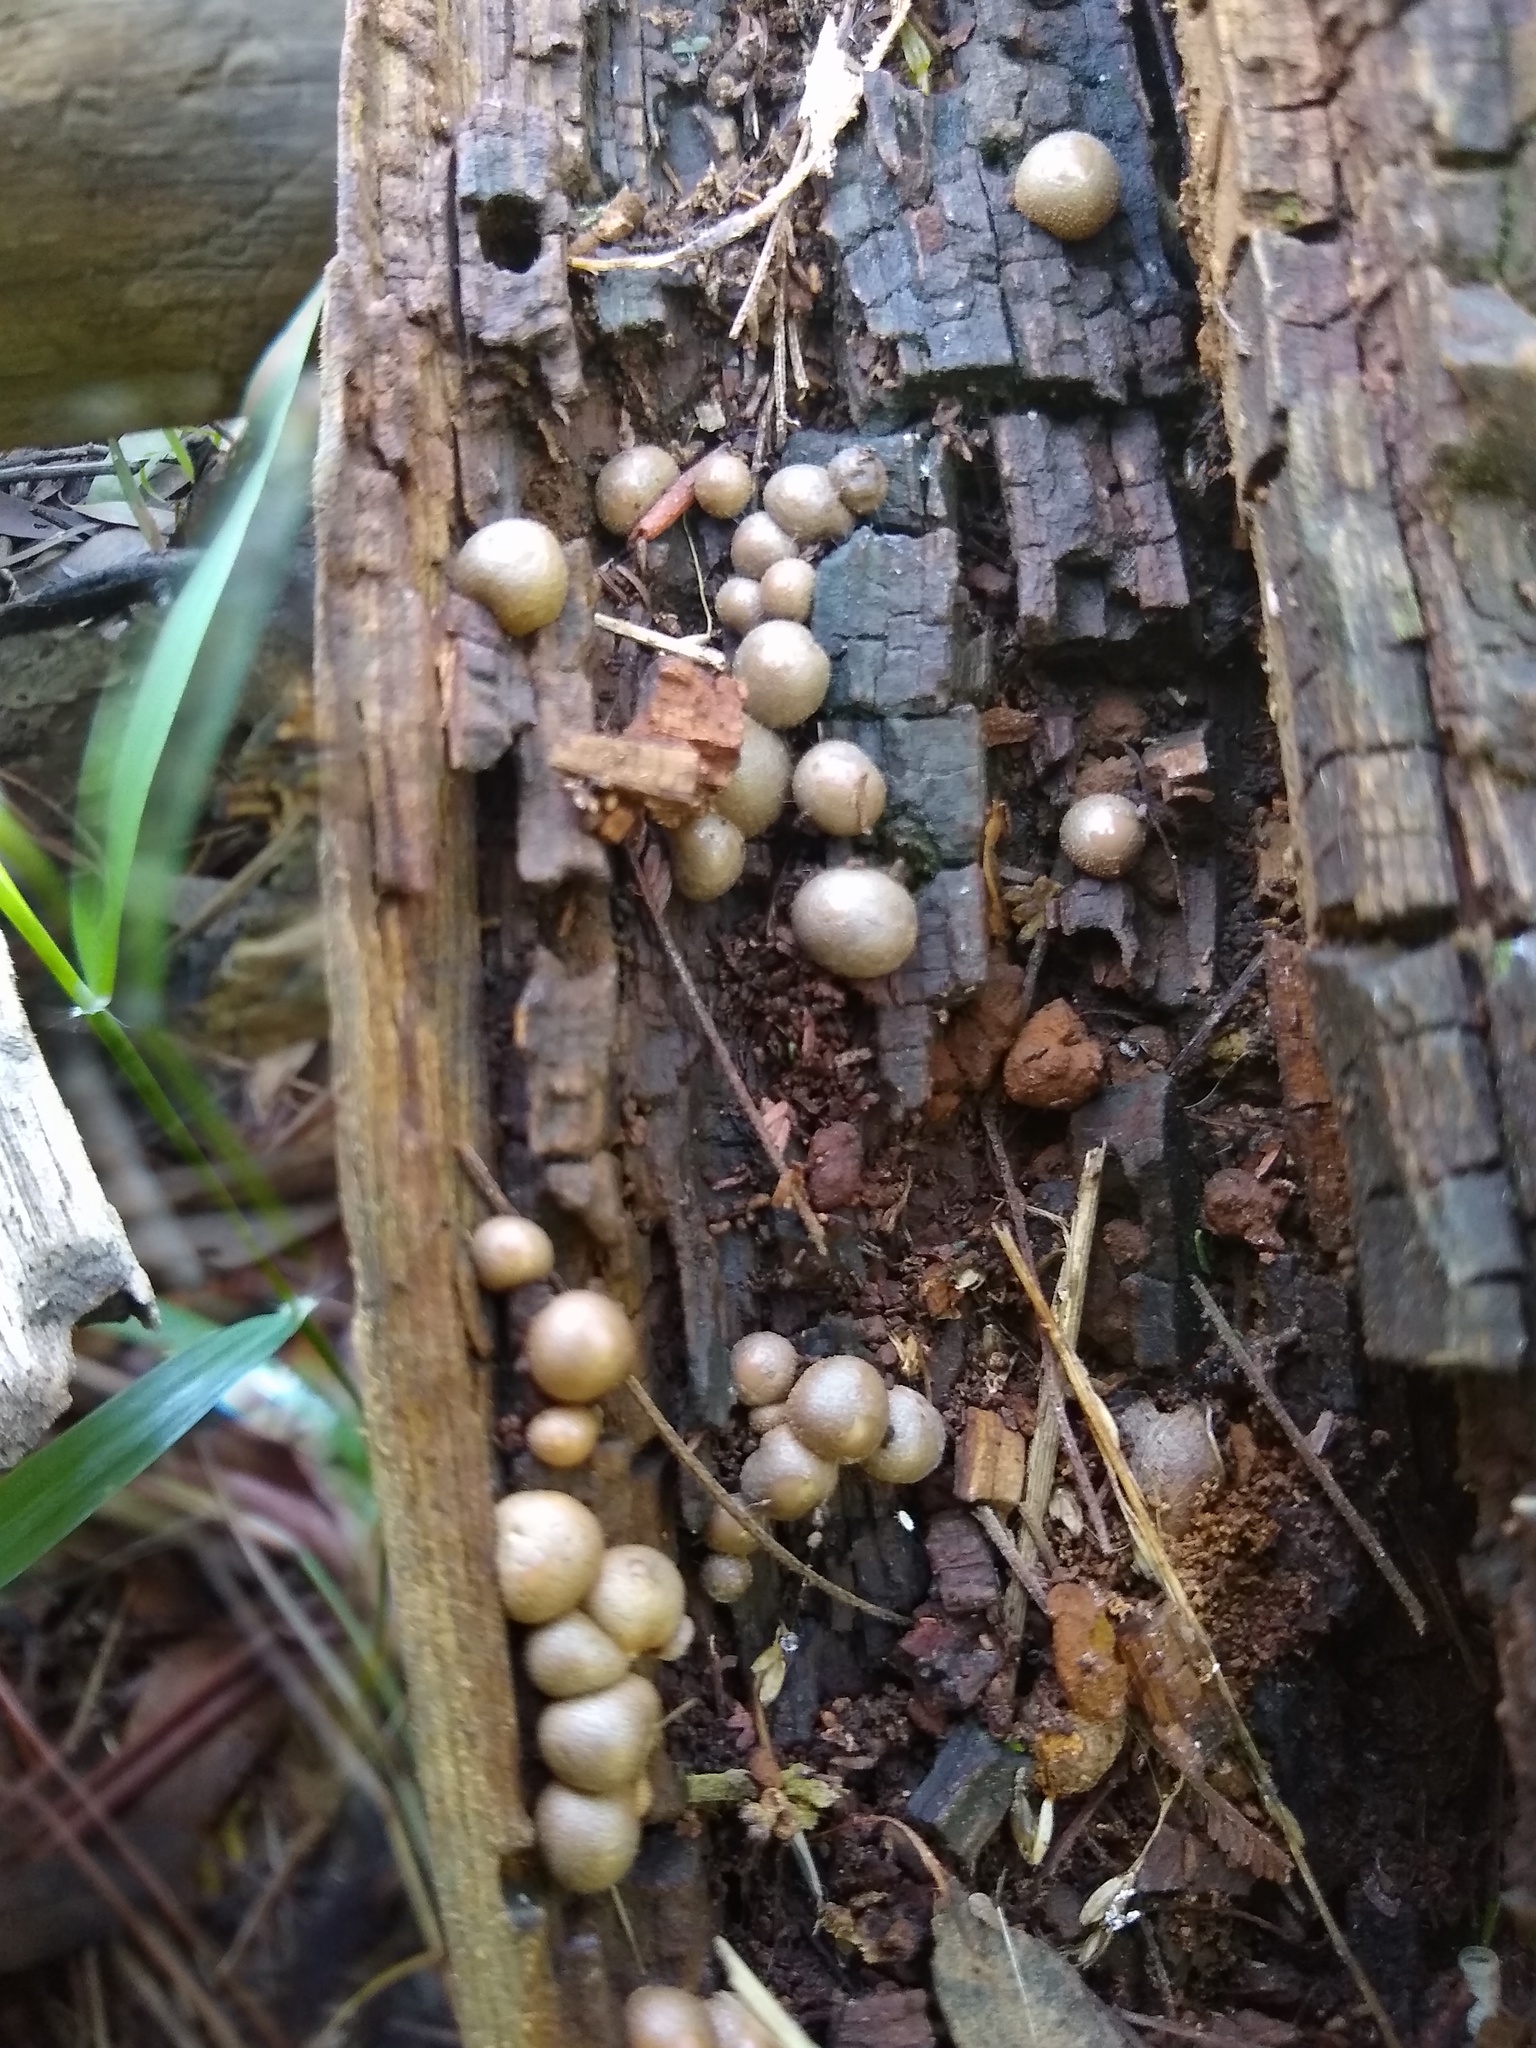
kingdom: Protozoa
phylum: Mycetozoa
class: Myxomycetes
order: Cribrariales
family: Tubiferaceae
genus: Lycogala
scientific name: Lycogala epidendrum
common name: Wolf's milk
